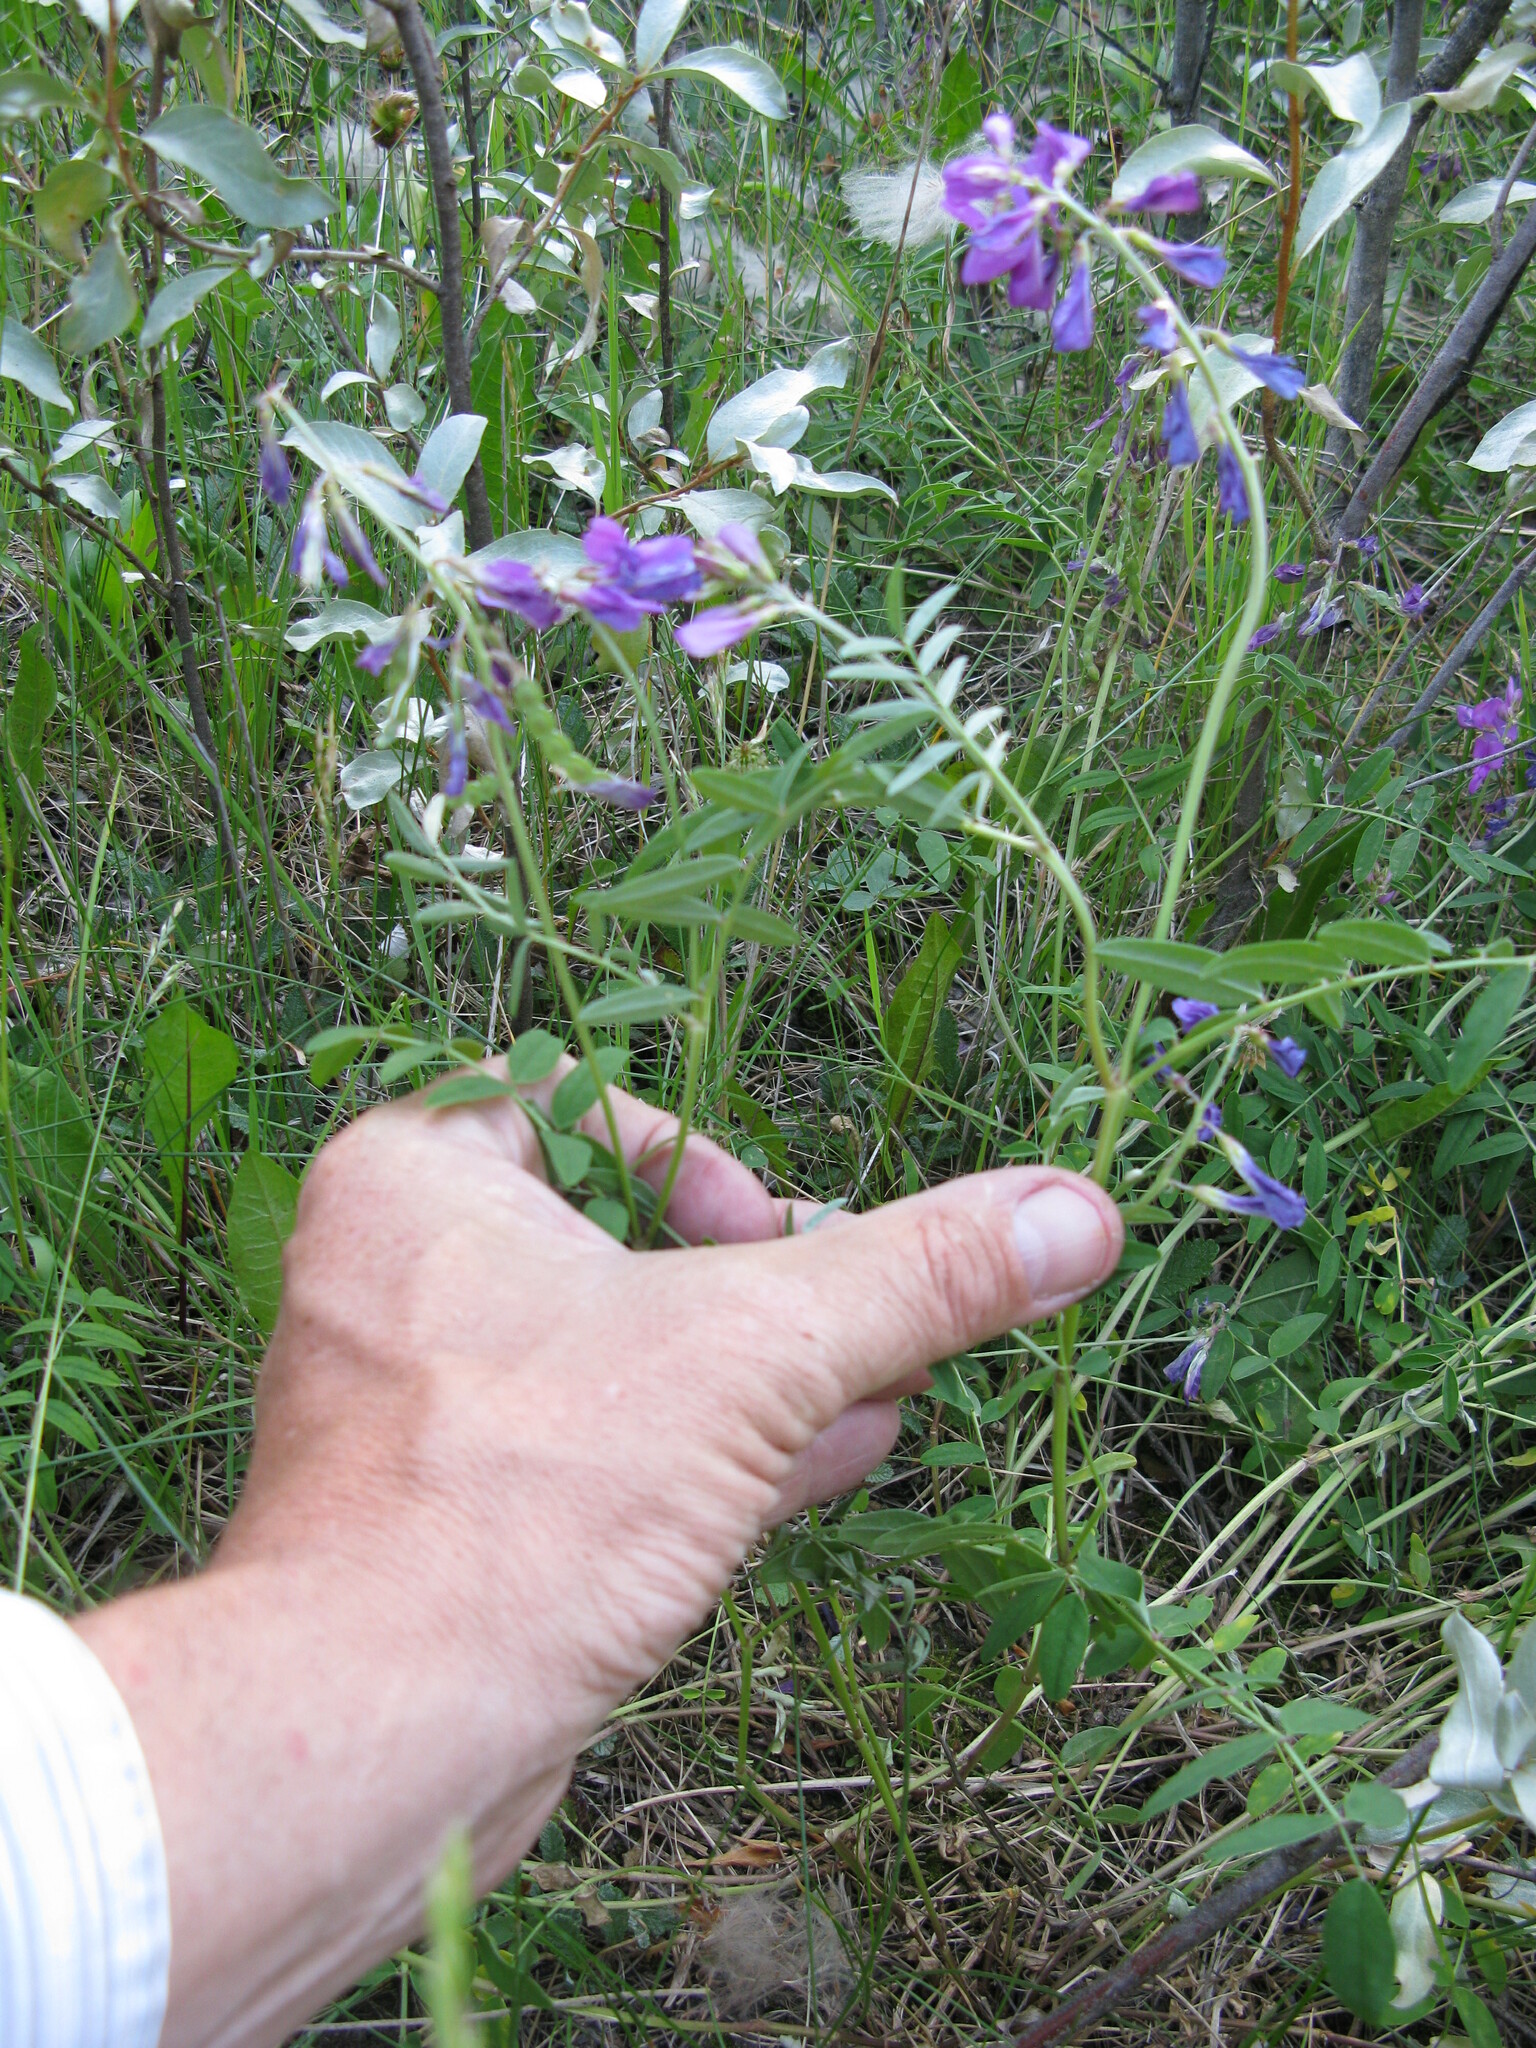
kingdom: Plantae
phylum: Tracheophyta
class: Magnoliopsida
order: Fabales
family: Fabaceae
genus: Hedysarum
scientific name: Hedysarum boreale
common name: Northern sweet-vetch
